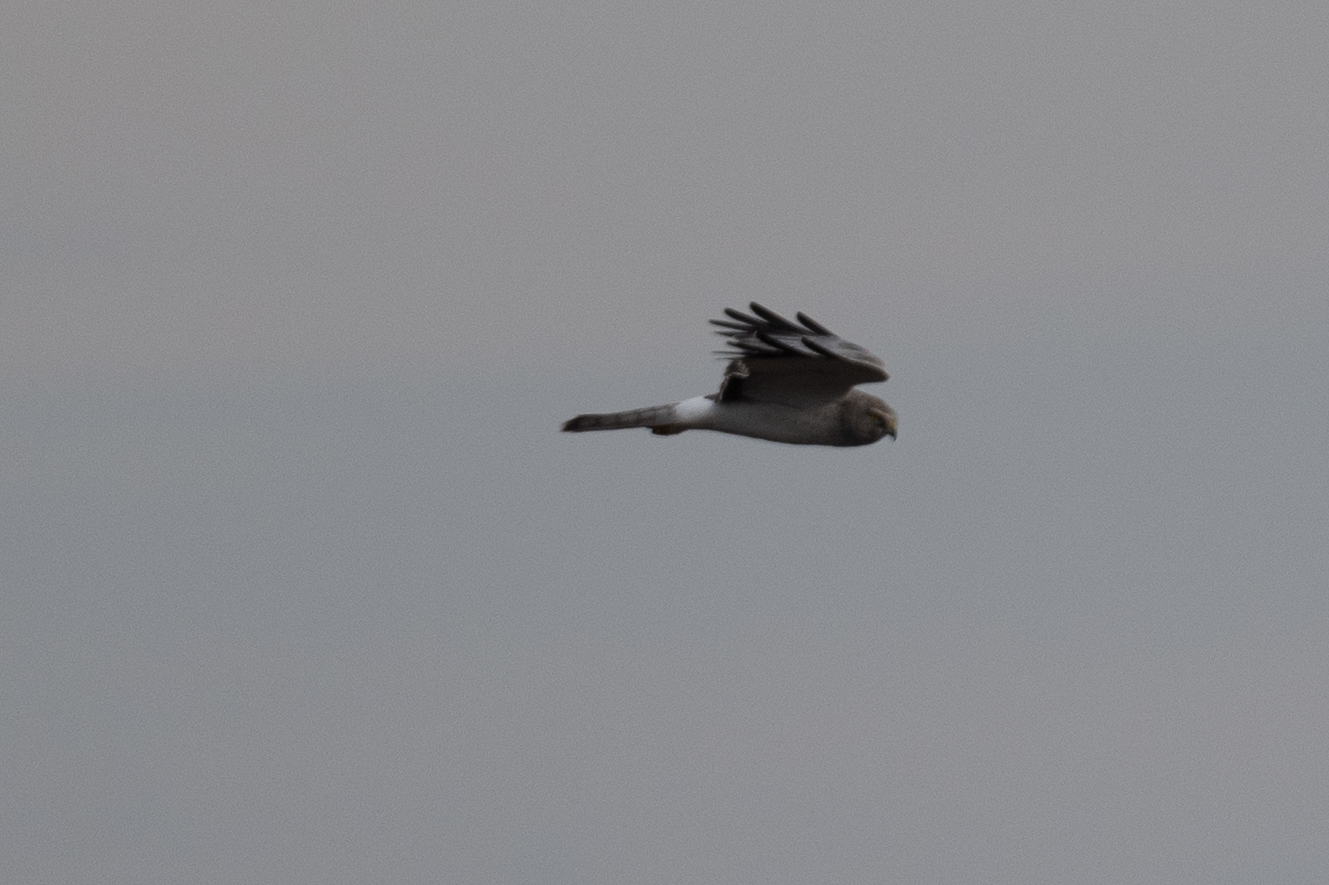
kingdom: Animalia
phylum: Chordata
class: Aves
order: Accipitriformes
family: Accipitridae
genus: Circus
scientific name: Circus cyaneus
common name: Hen harrier
